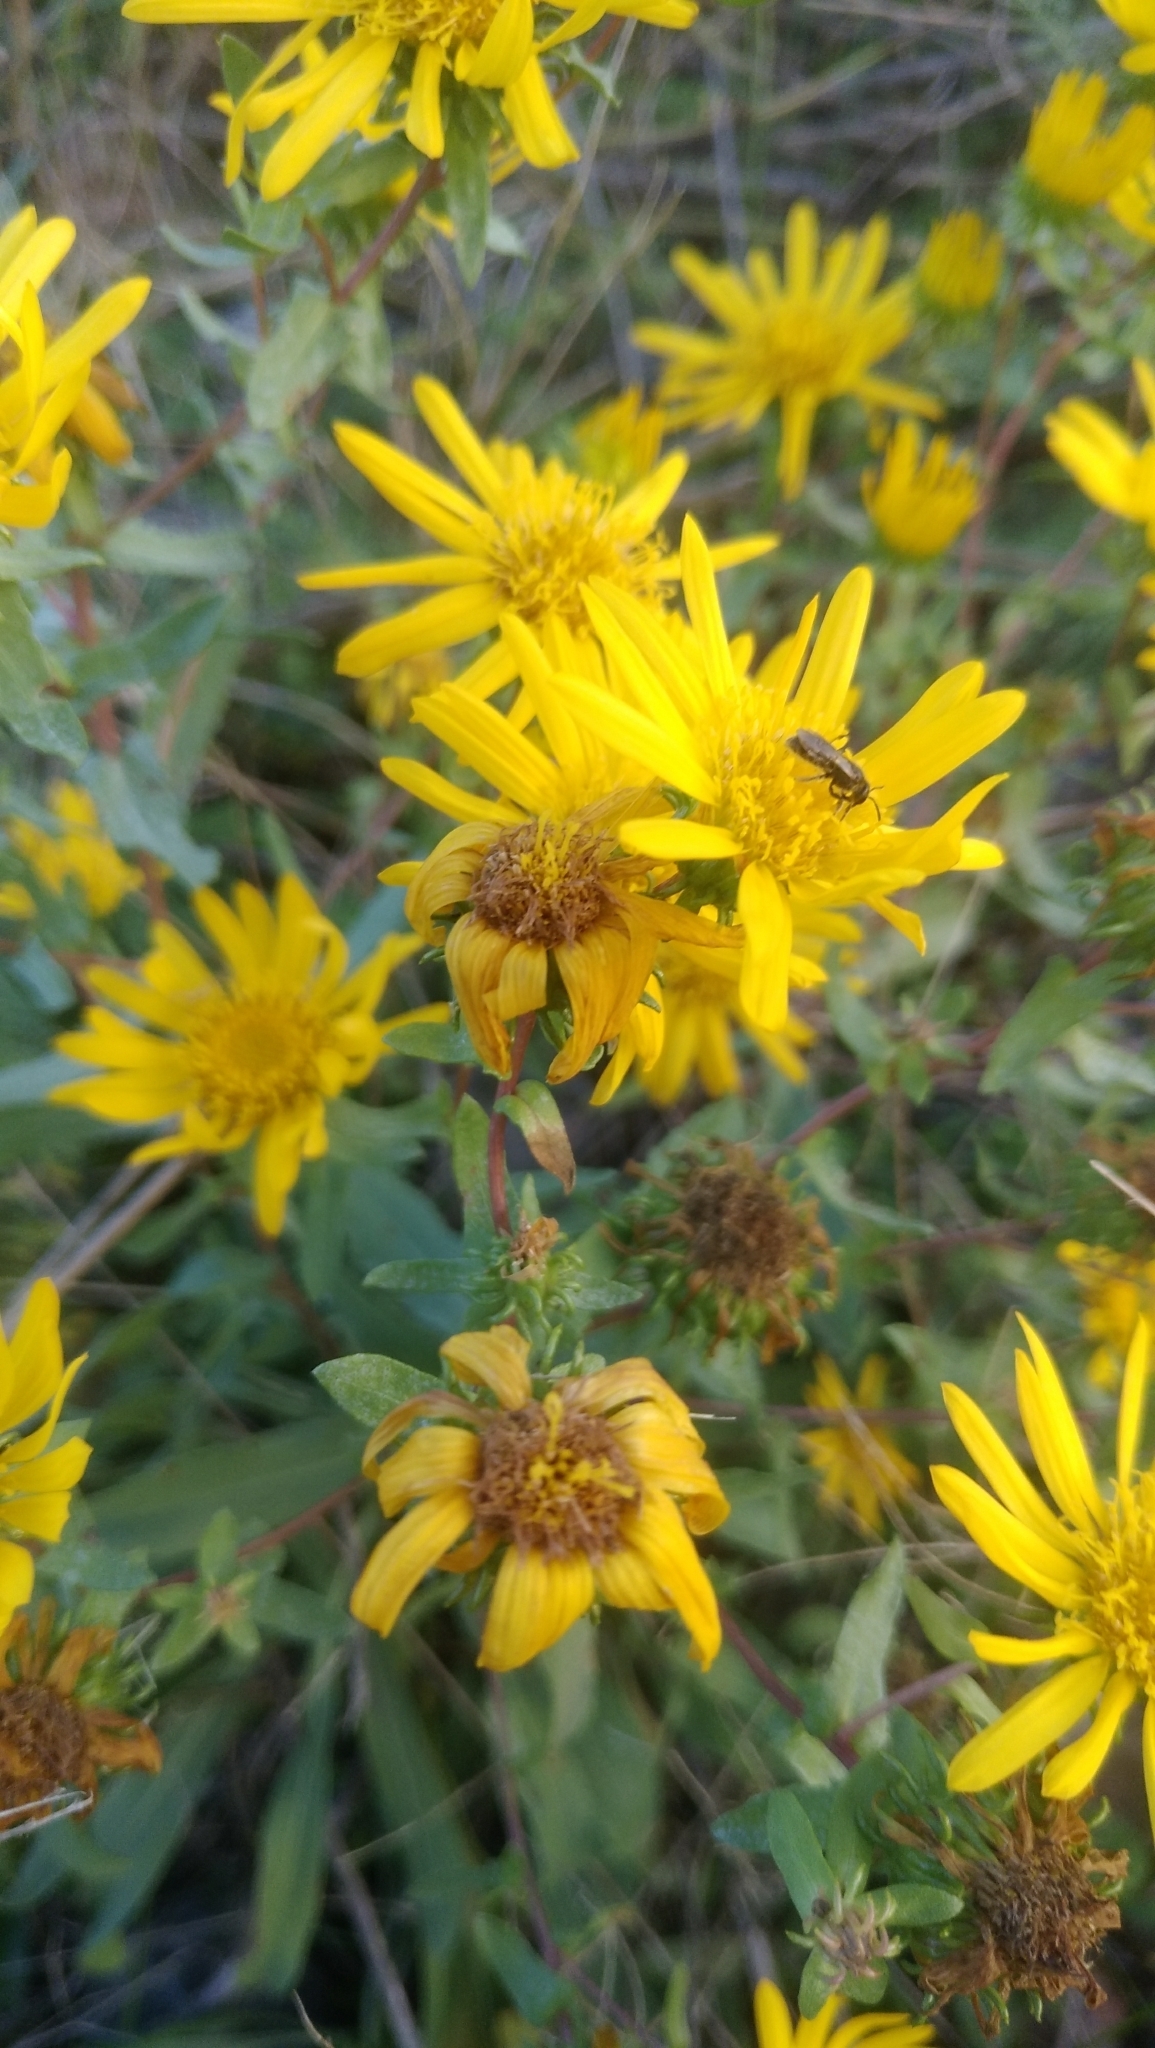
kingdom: Plantae
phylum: Tracheophyta
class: Magnoliopsida
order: Asterales
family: Asteraceae
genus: Grindelia
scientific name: Grindelia squarrosa
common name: Curly-cup gumweed
